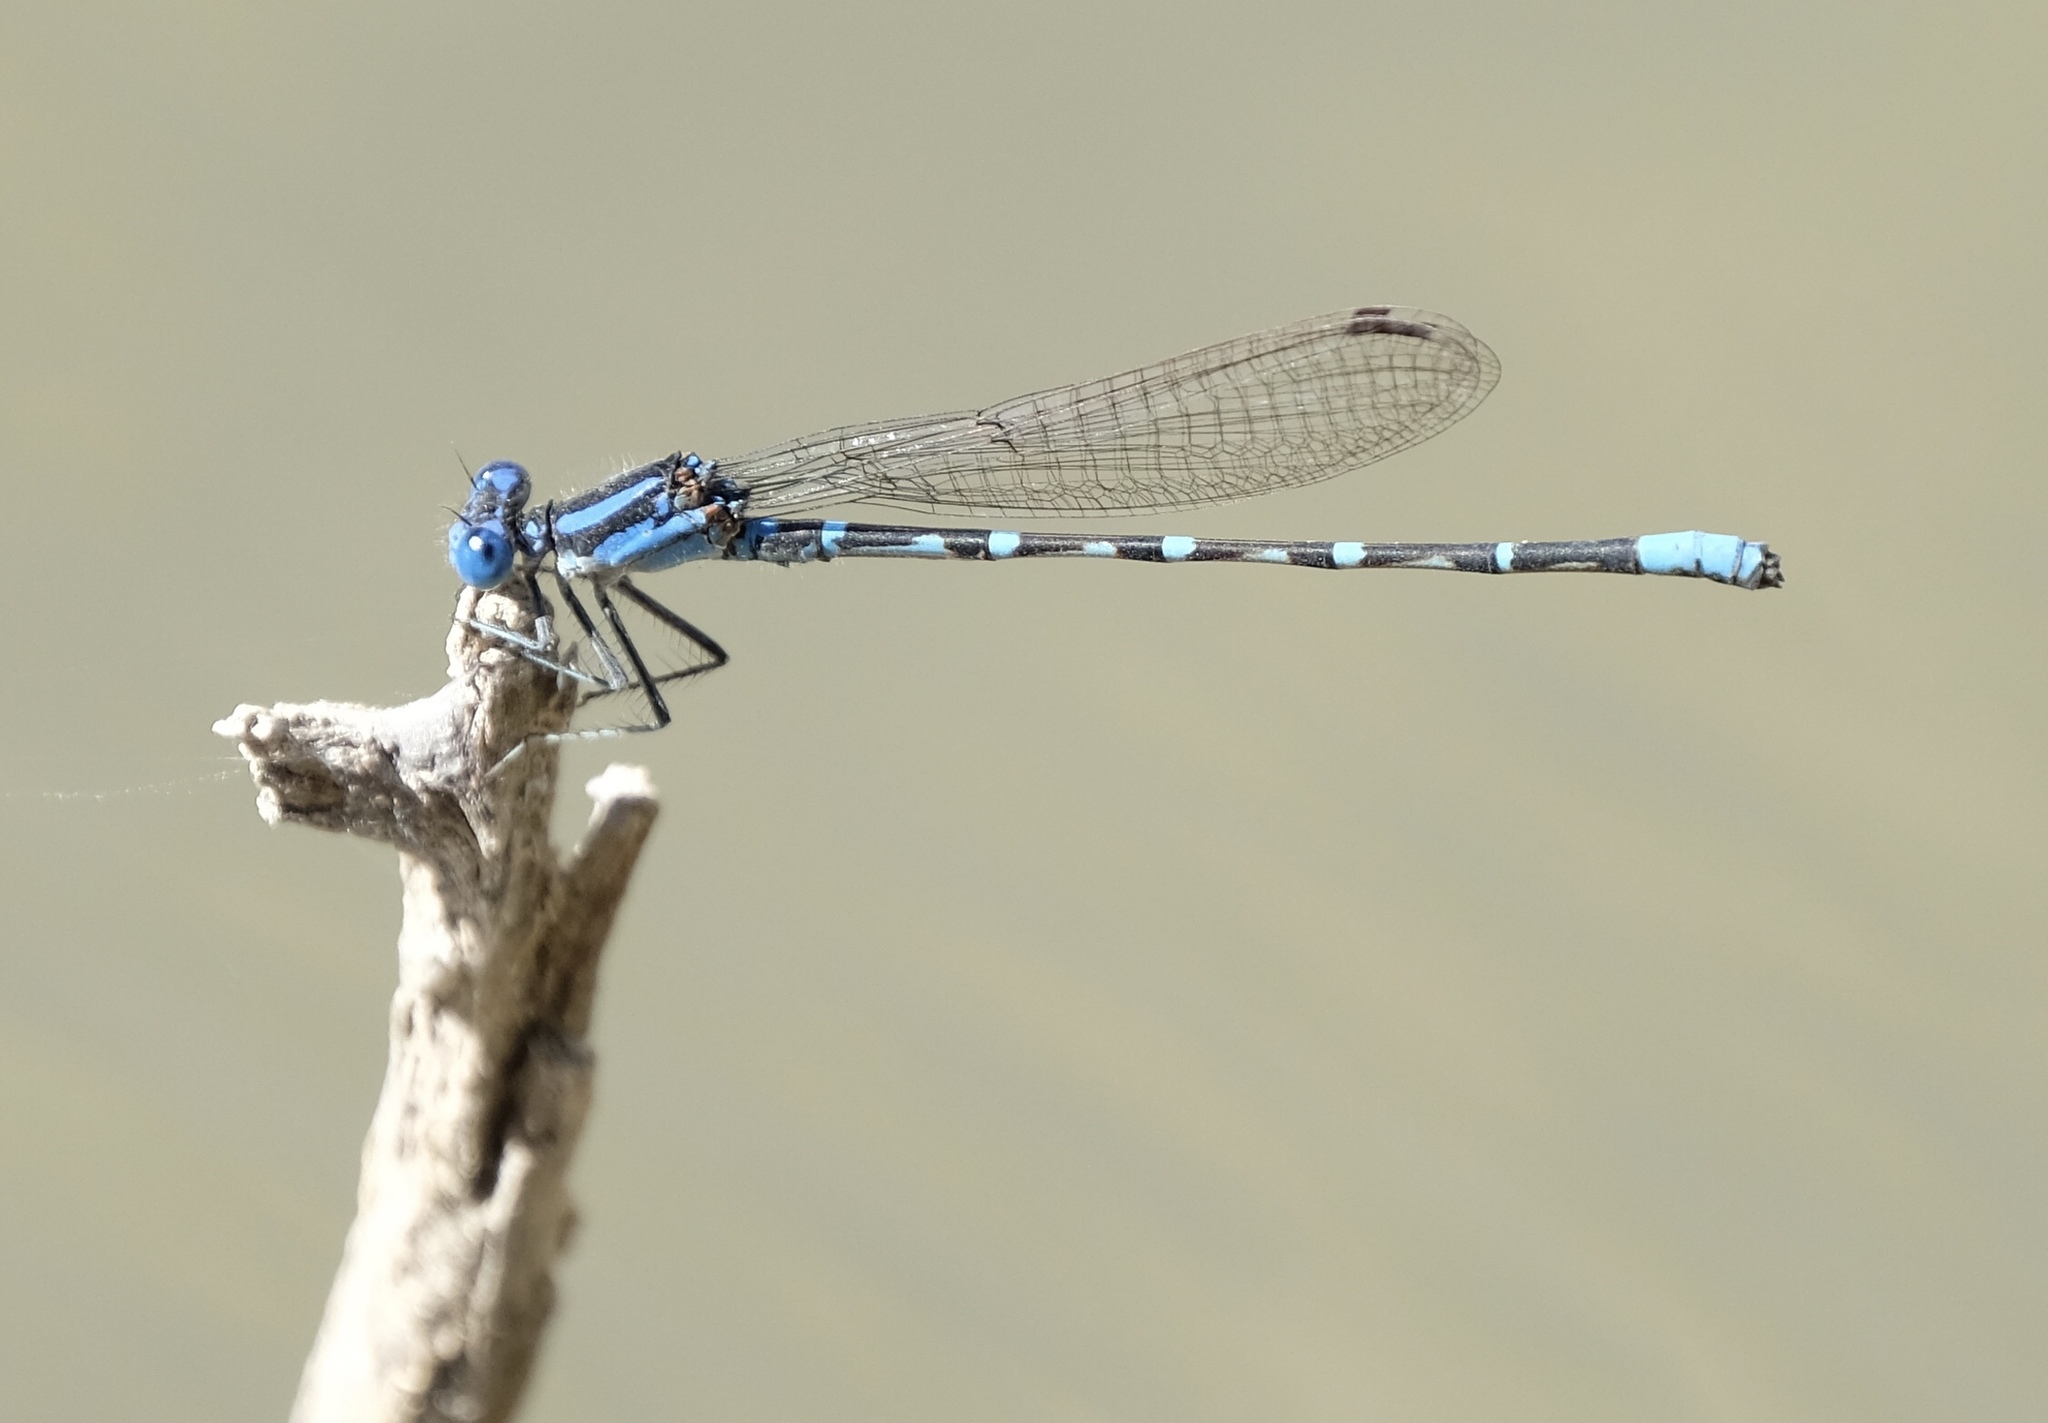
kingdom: Animalia
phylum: Arthropoda
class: Insecta
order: Odonata
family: Coenagrionidae
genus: Argia
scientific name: Argia sedula
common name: Blue-ringed dancer
